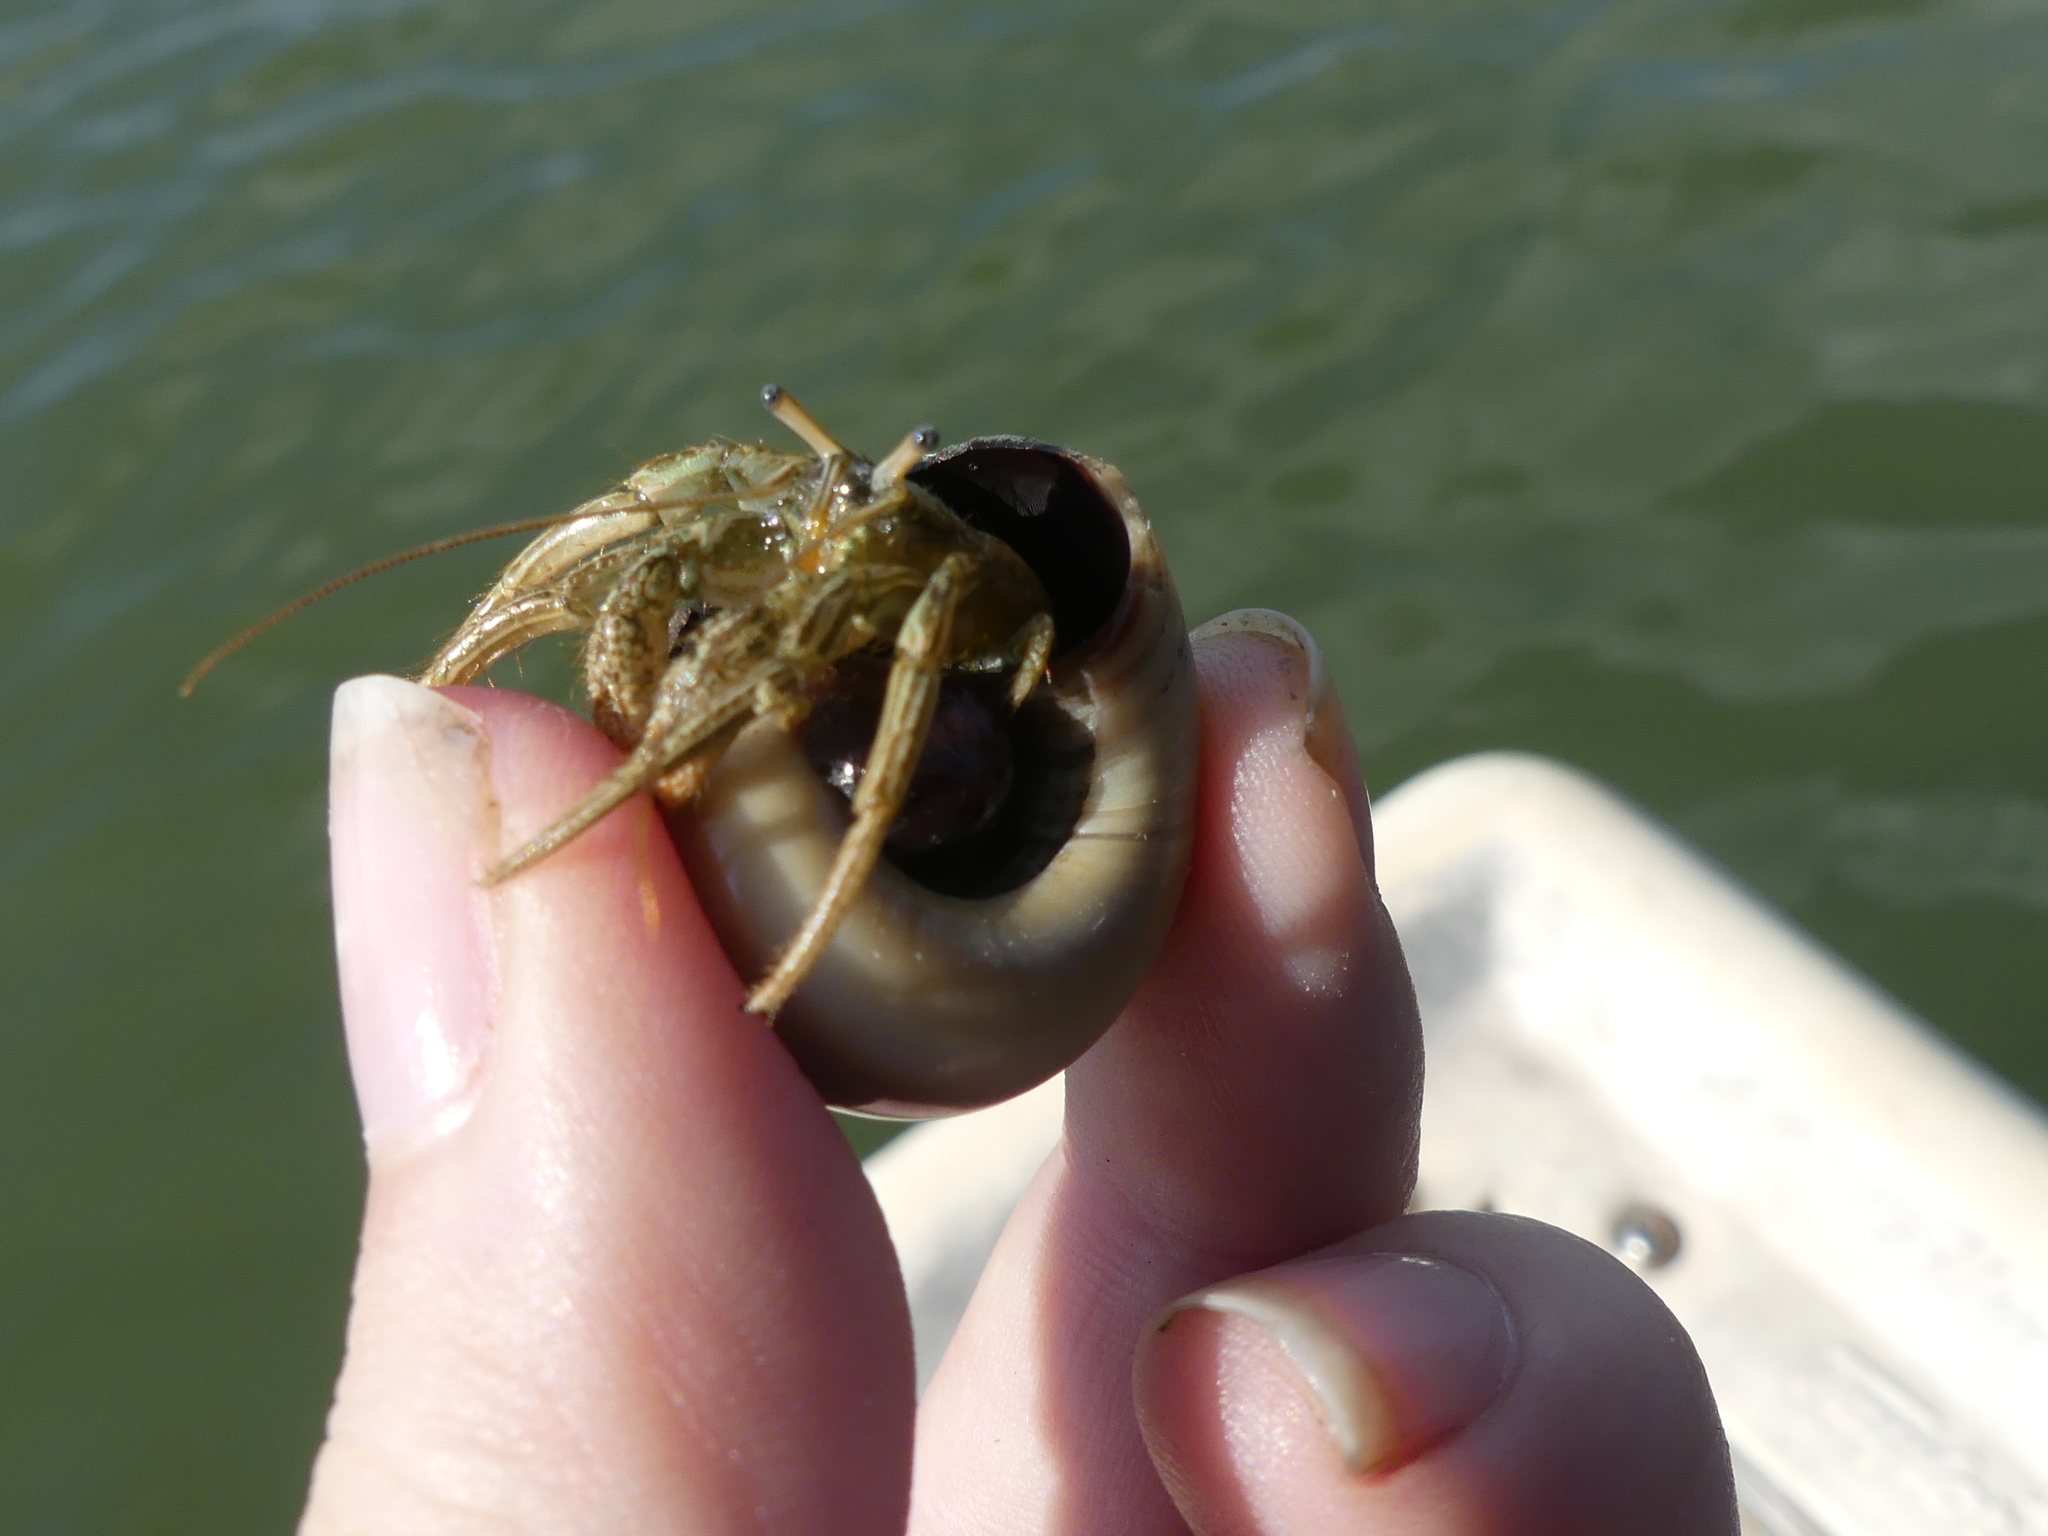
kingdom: Animalia
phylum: Arthropoda
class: Malacostraca
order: Decapoda
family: Diogenidae
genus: Clibanarius
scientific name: Clibanarius vittatus
